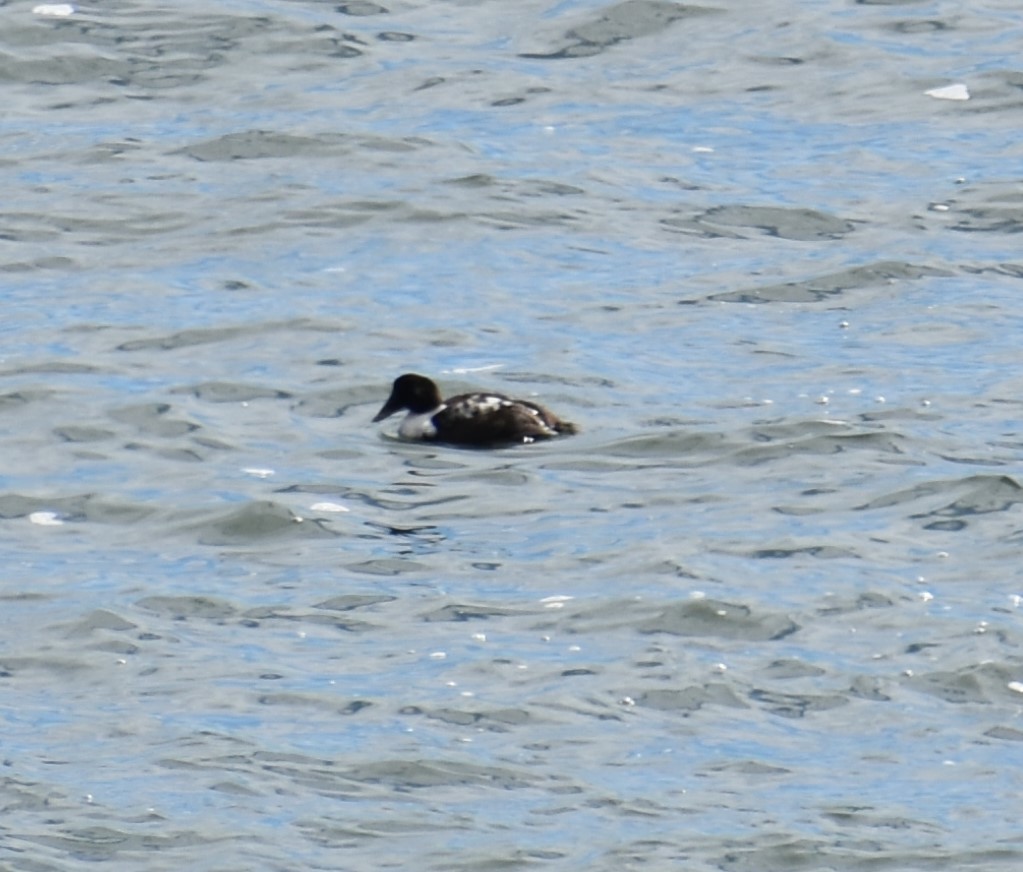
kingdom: Animalia
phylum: Chordata
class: Aves
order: Anseriformes
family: Anatidae
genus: Somateria
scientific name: Somateria mollissima
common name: Common eider
